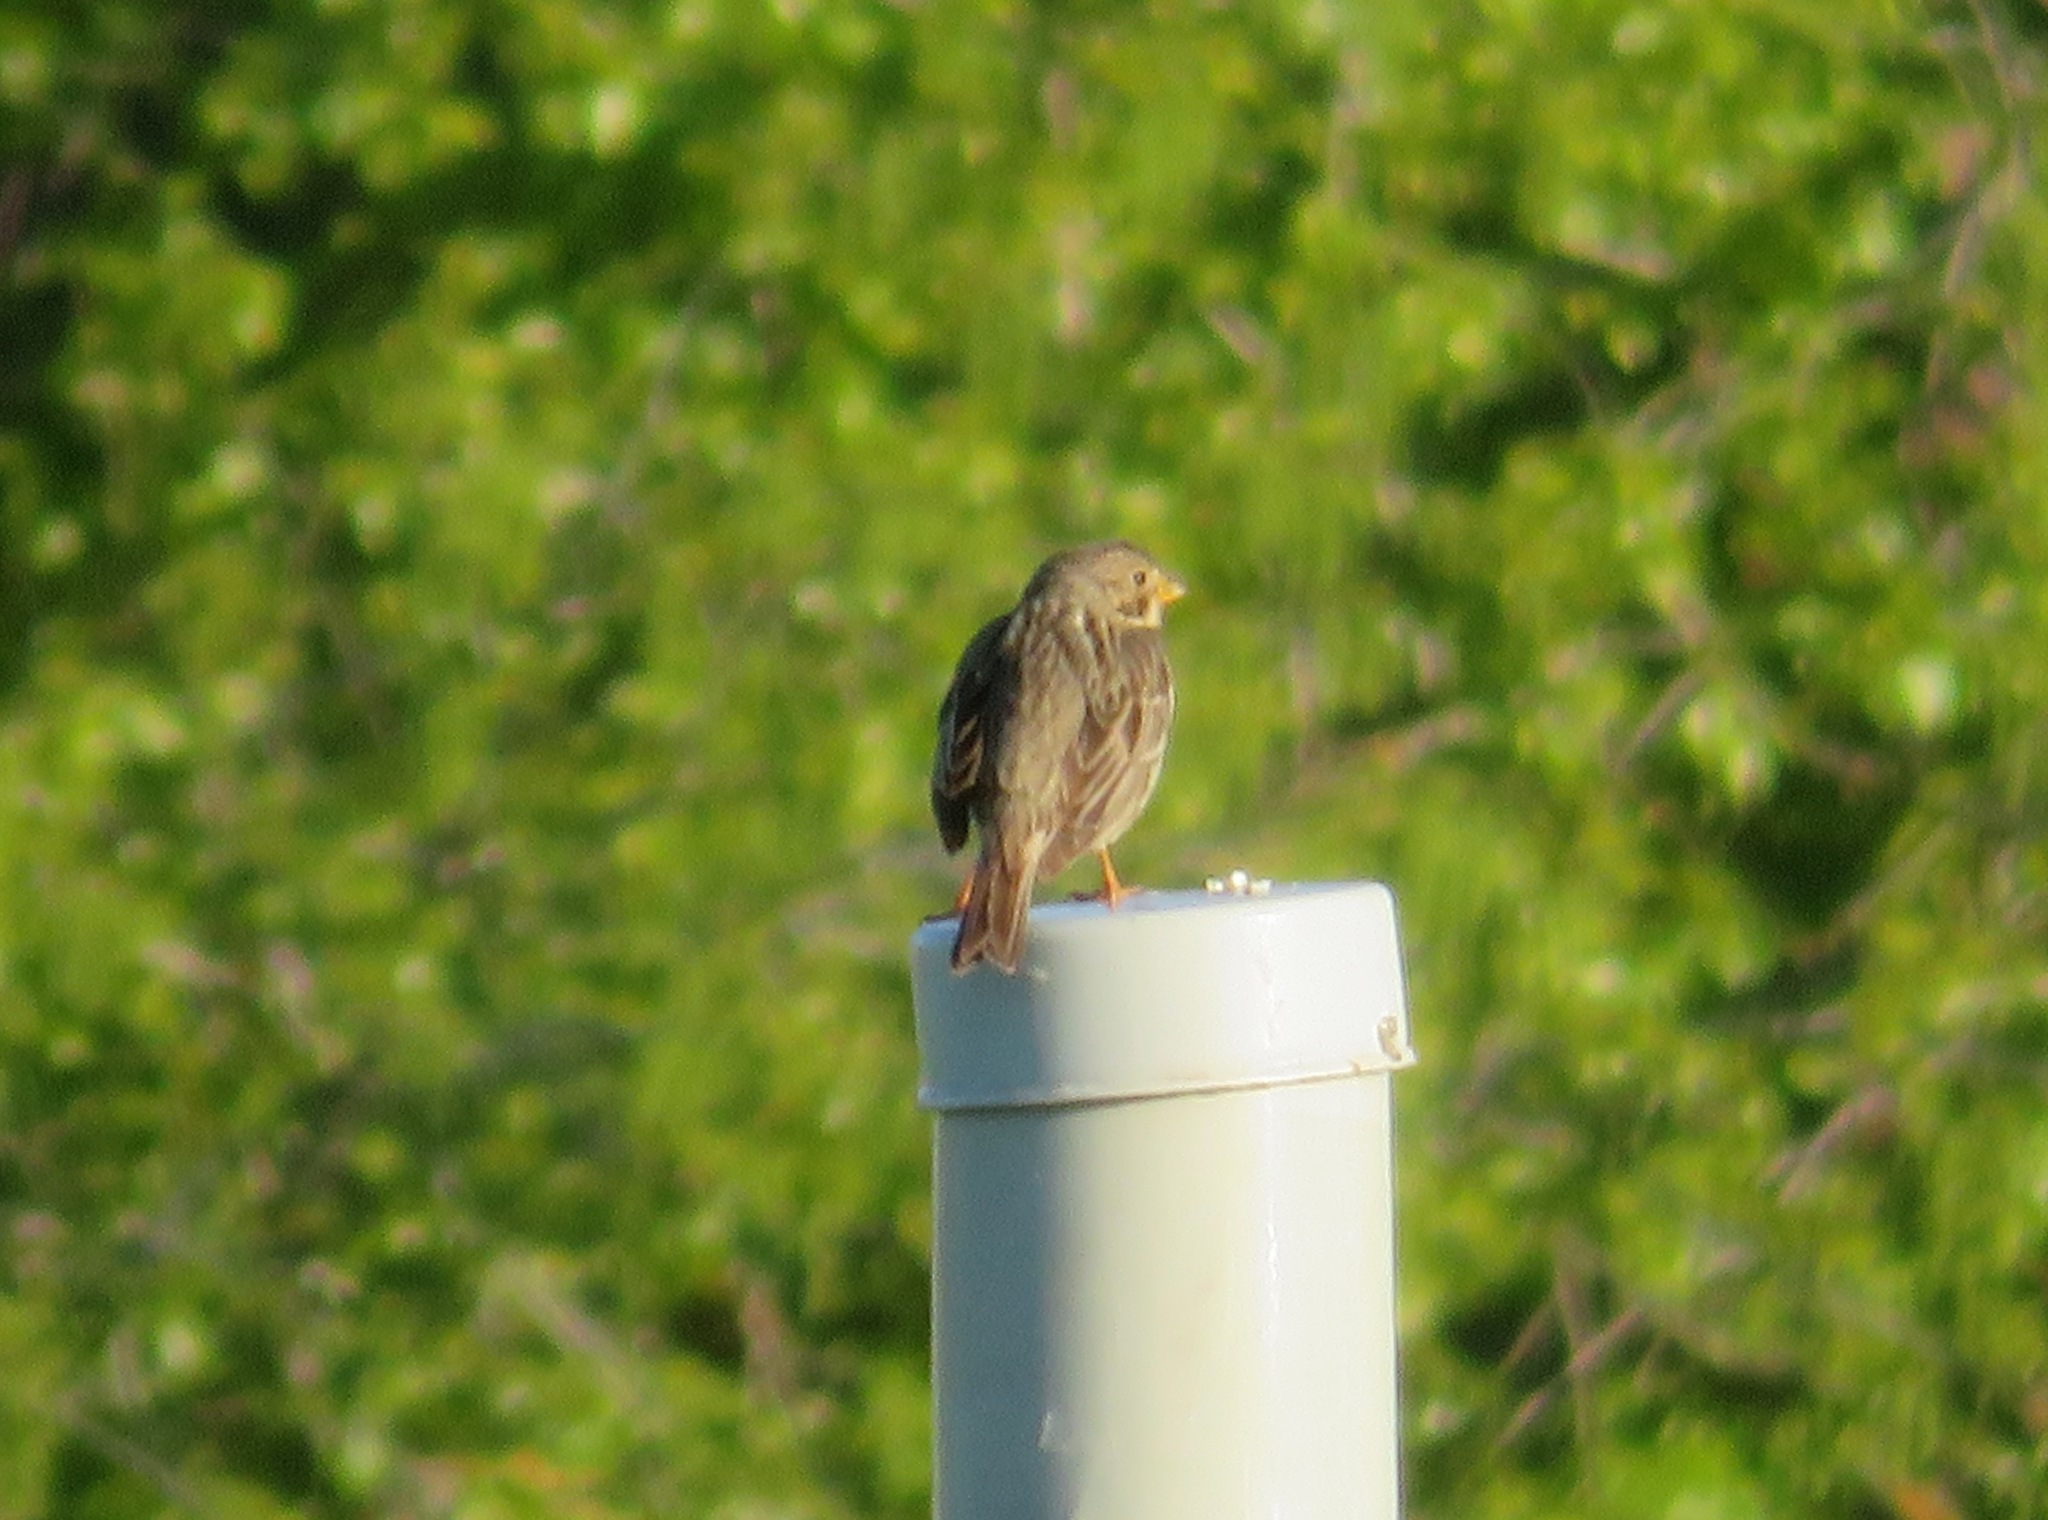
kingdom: Animalia
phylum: Chordata
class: Aves
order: Passeriformes
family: Emberizidae
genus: Emberiza
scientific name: Emberiza calandra
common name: Corn bunting
